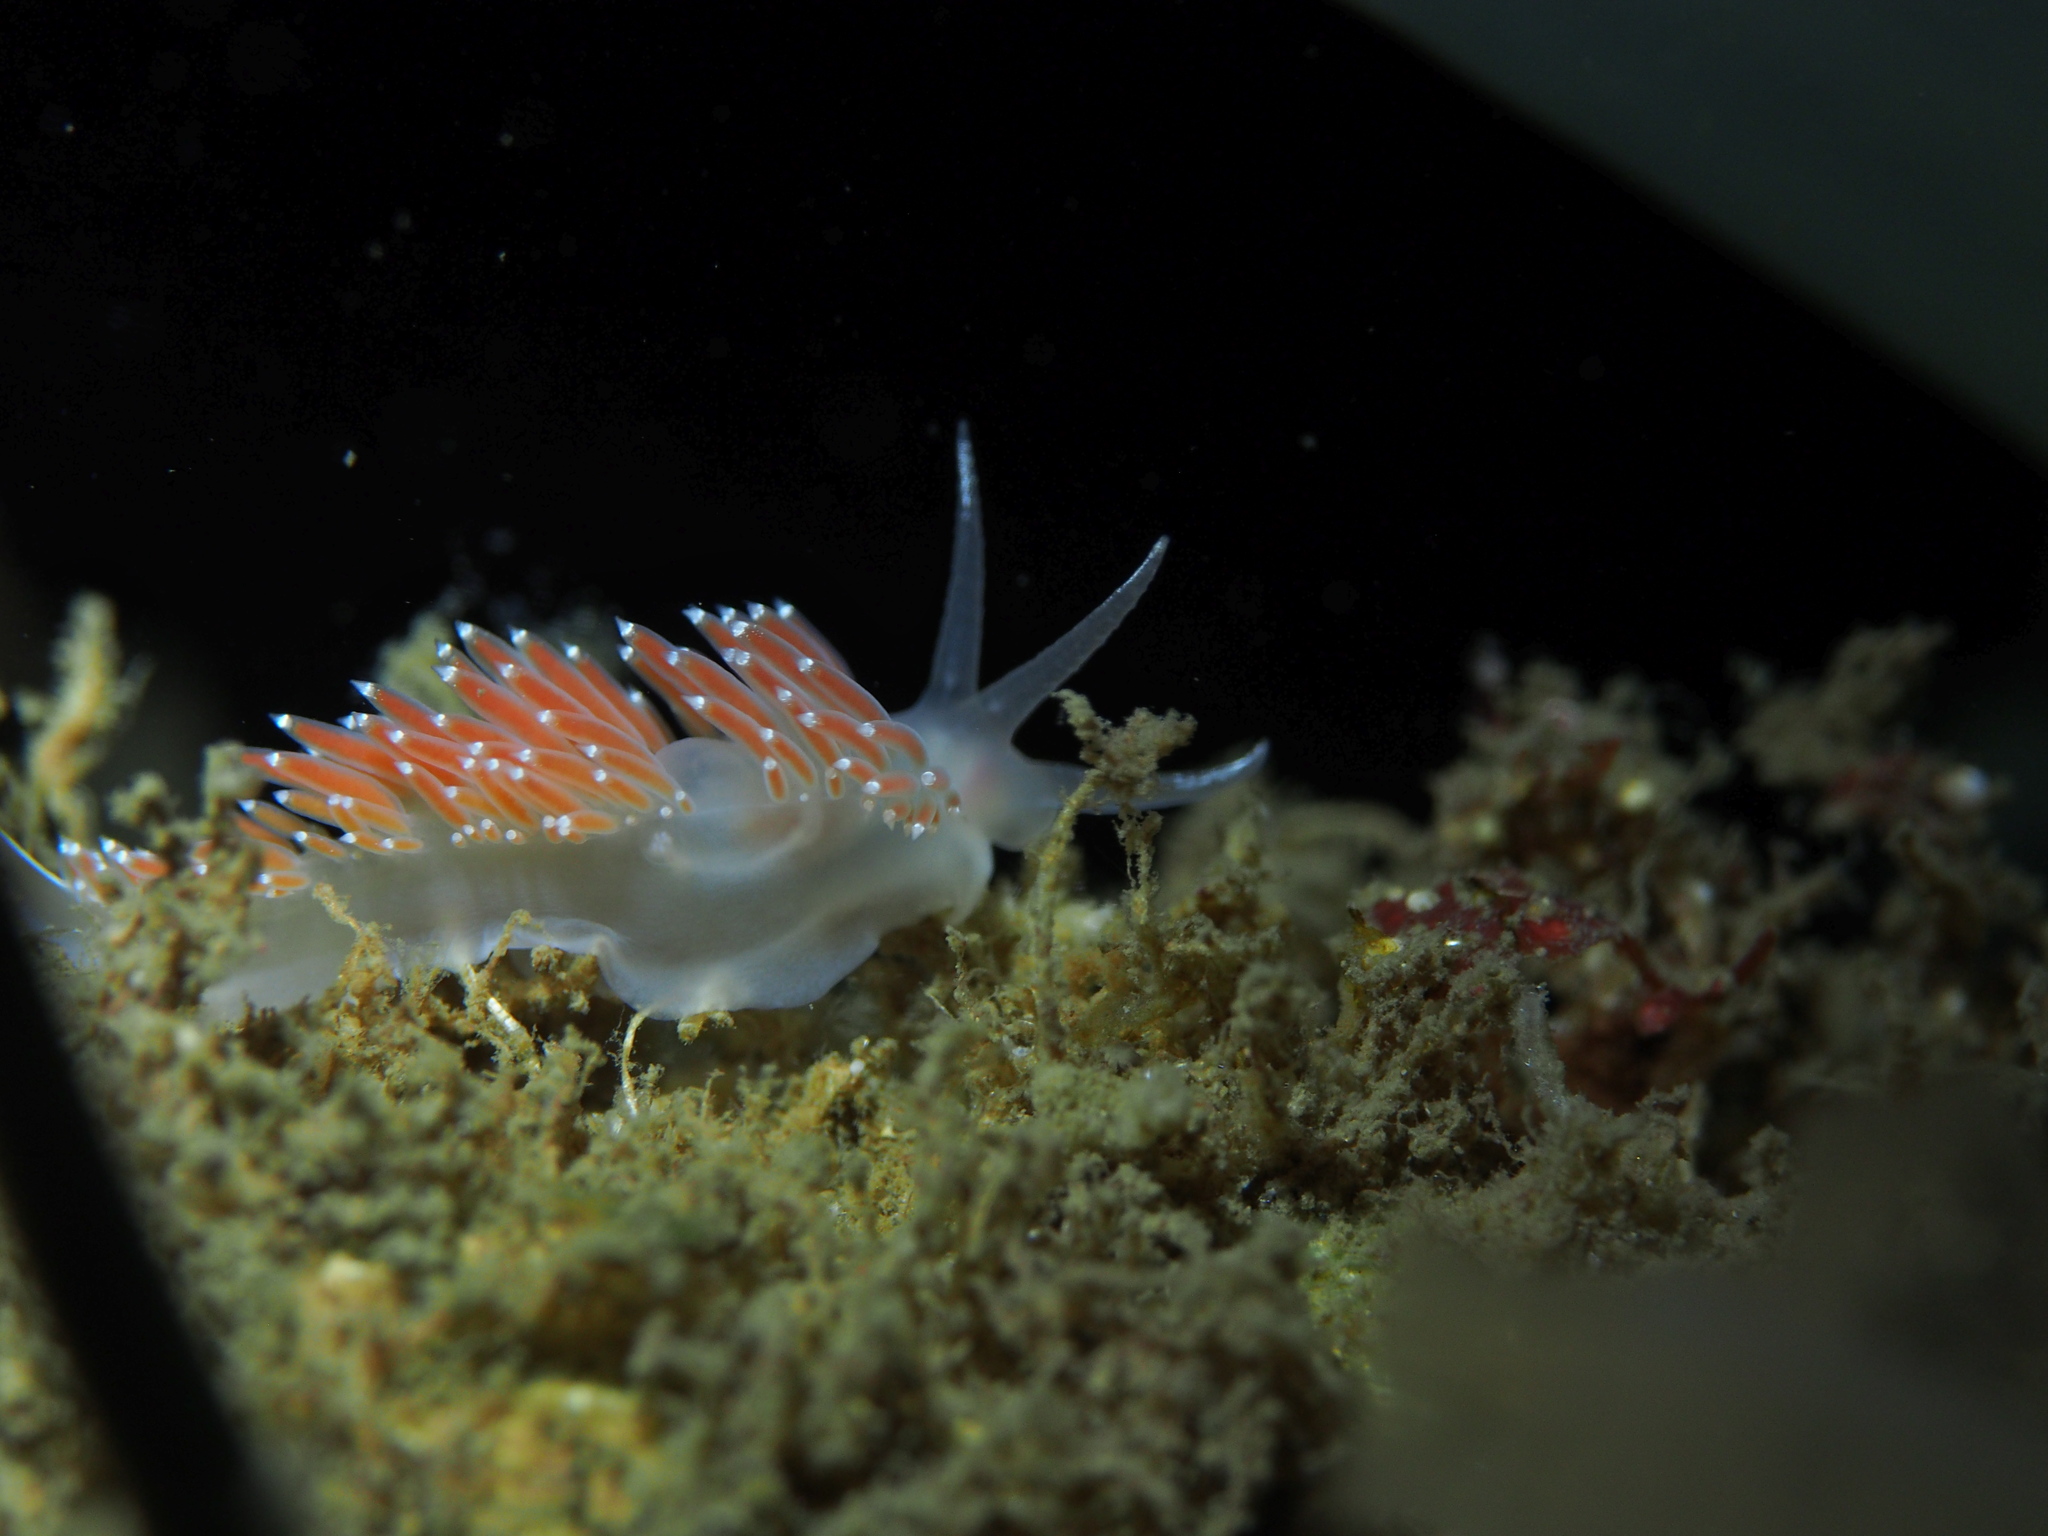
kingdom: Animalia
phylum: Mollusca
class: Gastropoda
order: Nudibranchia
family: Coryphellidae
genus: Coryphella
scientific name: Coryphella verrucosa
